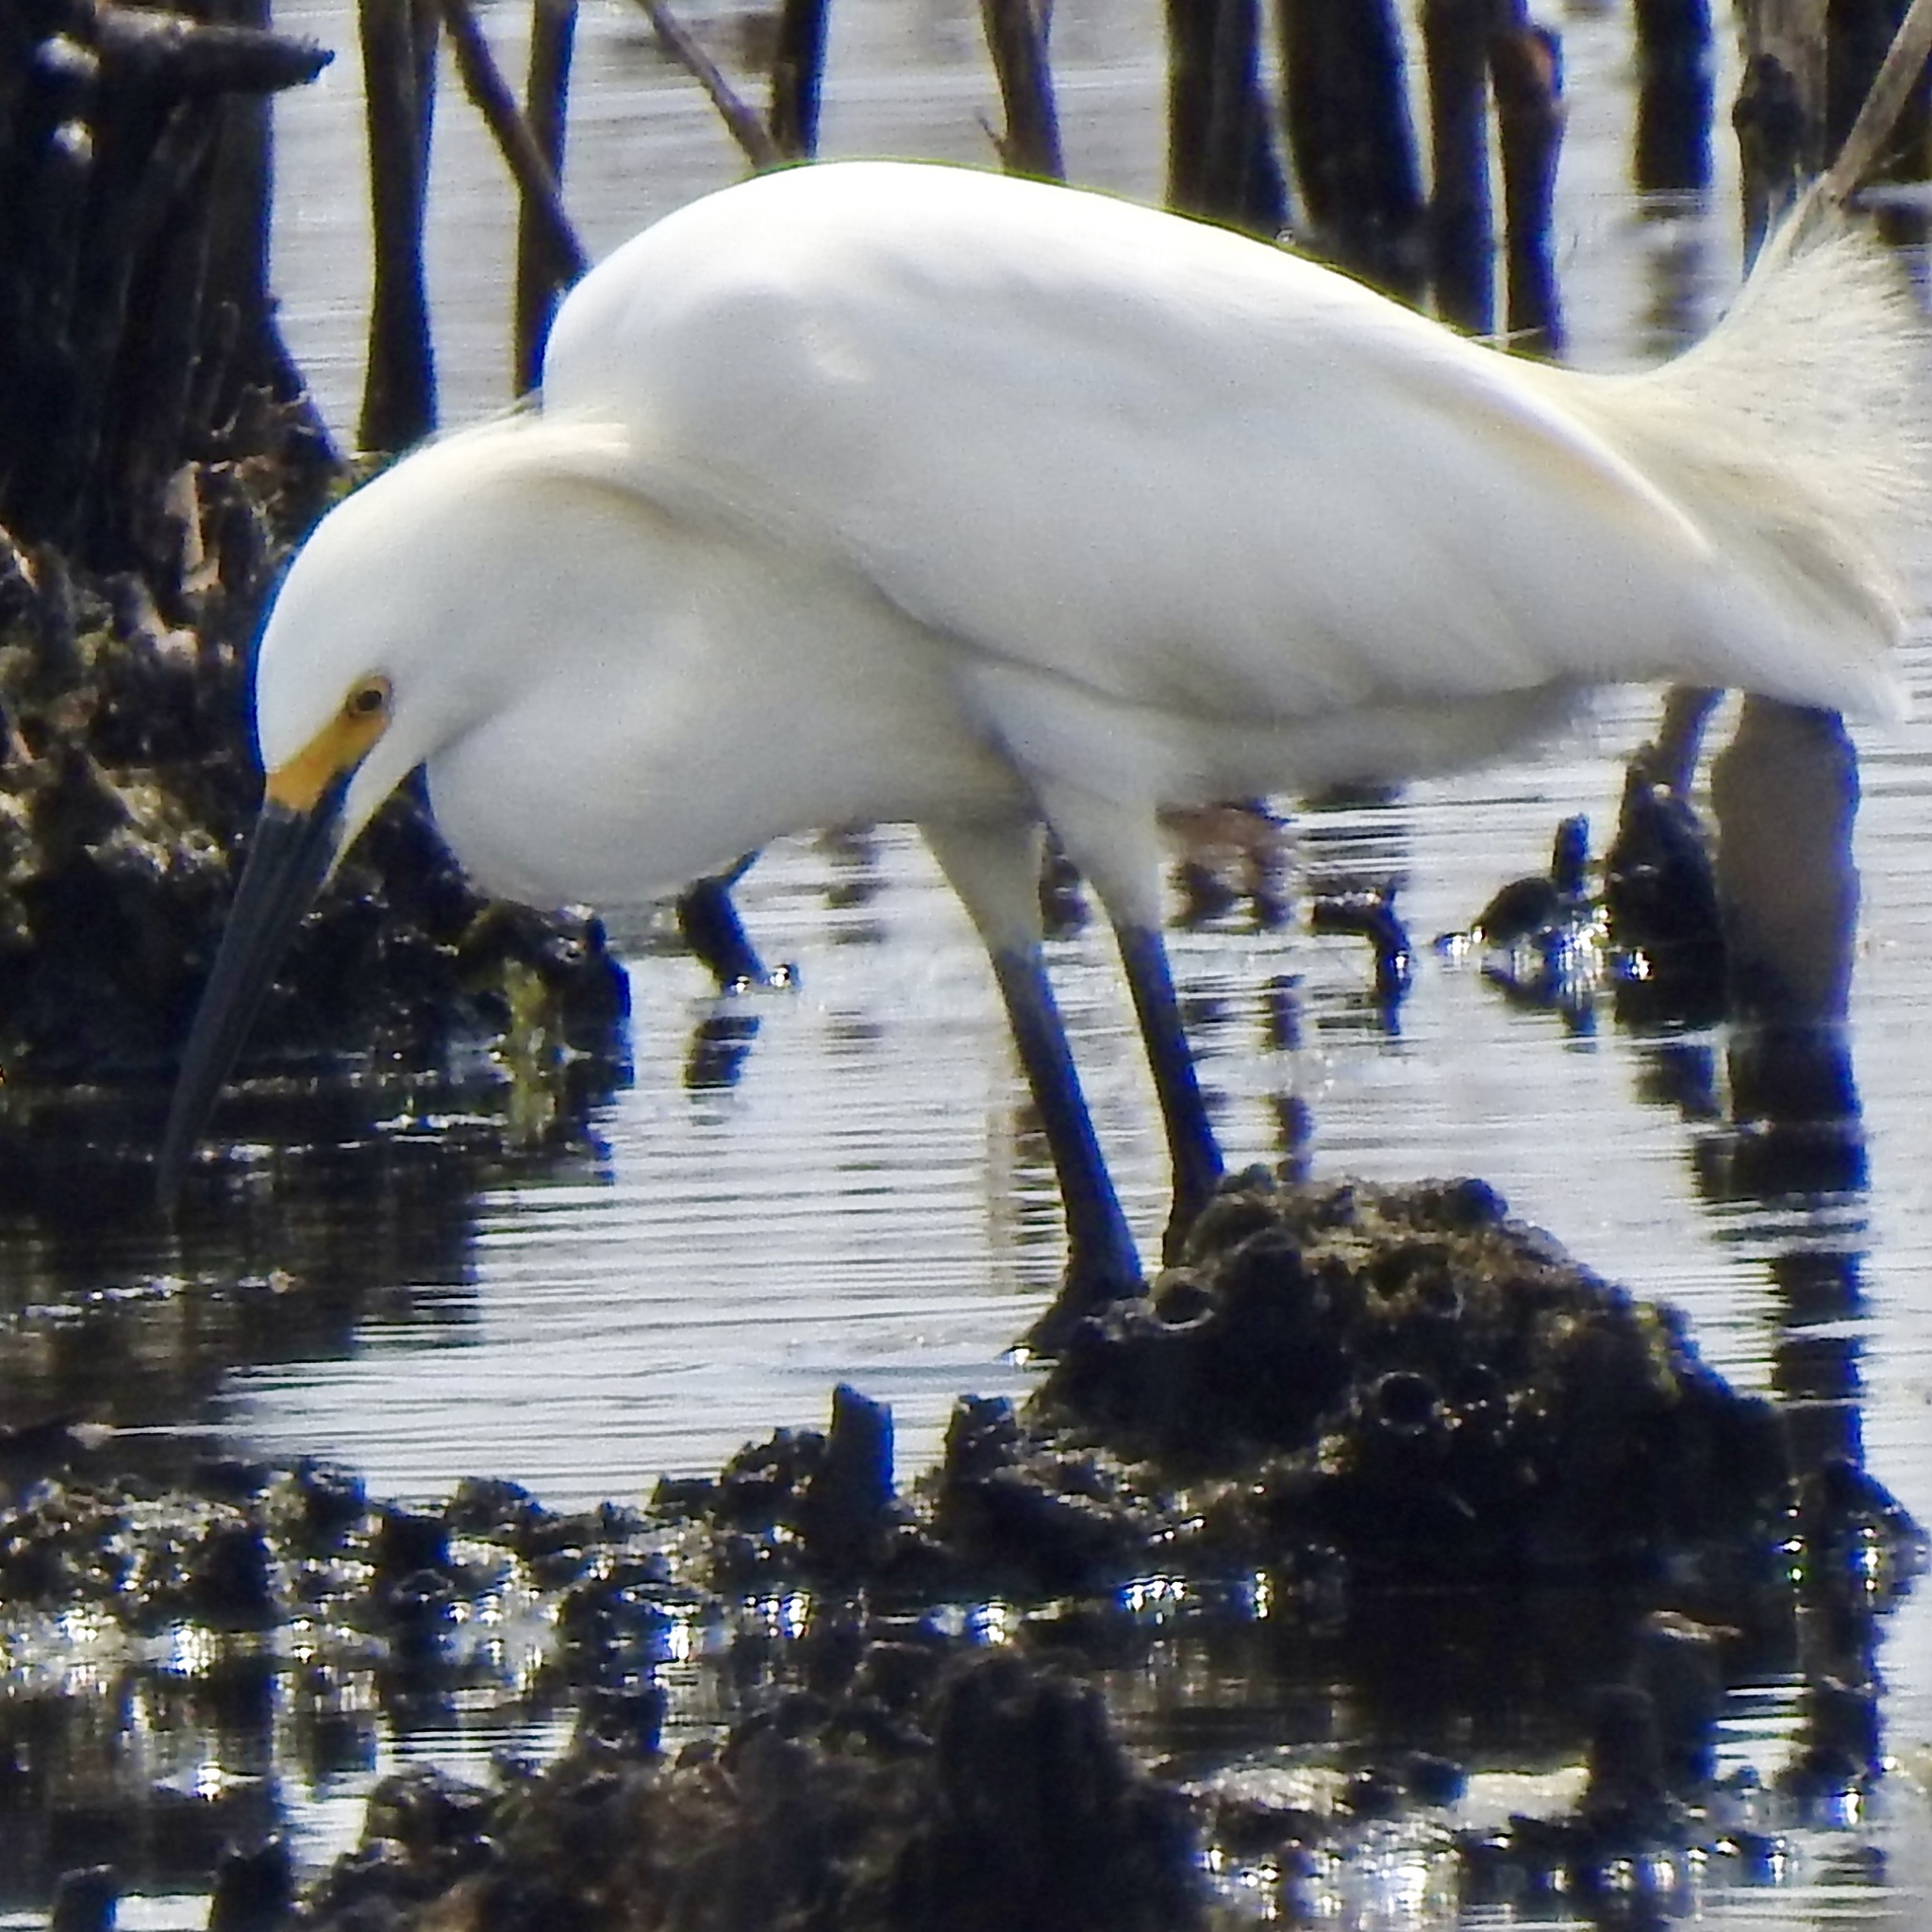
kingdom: Animalia
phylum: Chordata
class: Aves
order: Pelecaniformes
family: Ardeidae
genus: Egretta
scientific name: Egretta thula
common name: Snowy egret
